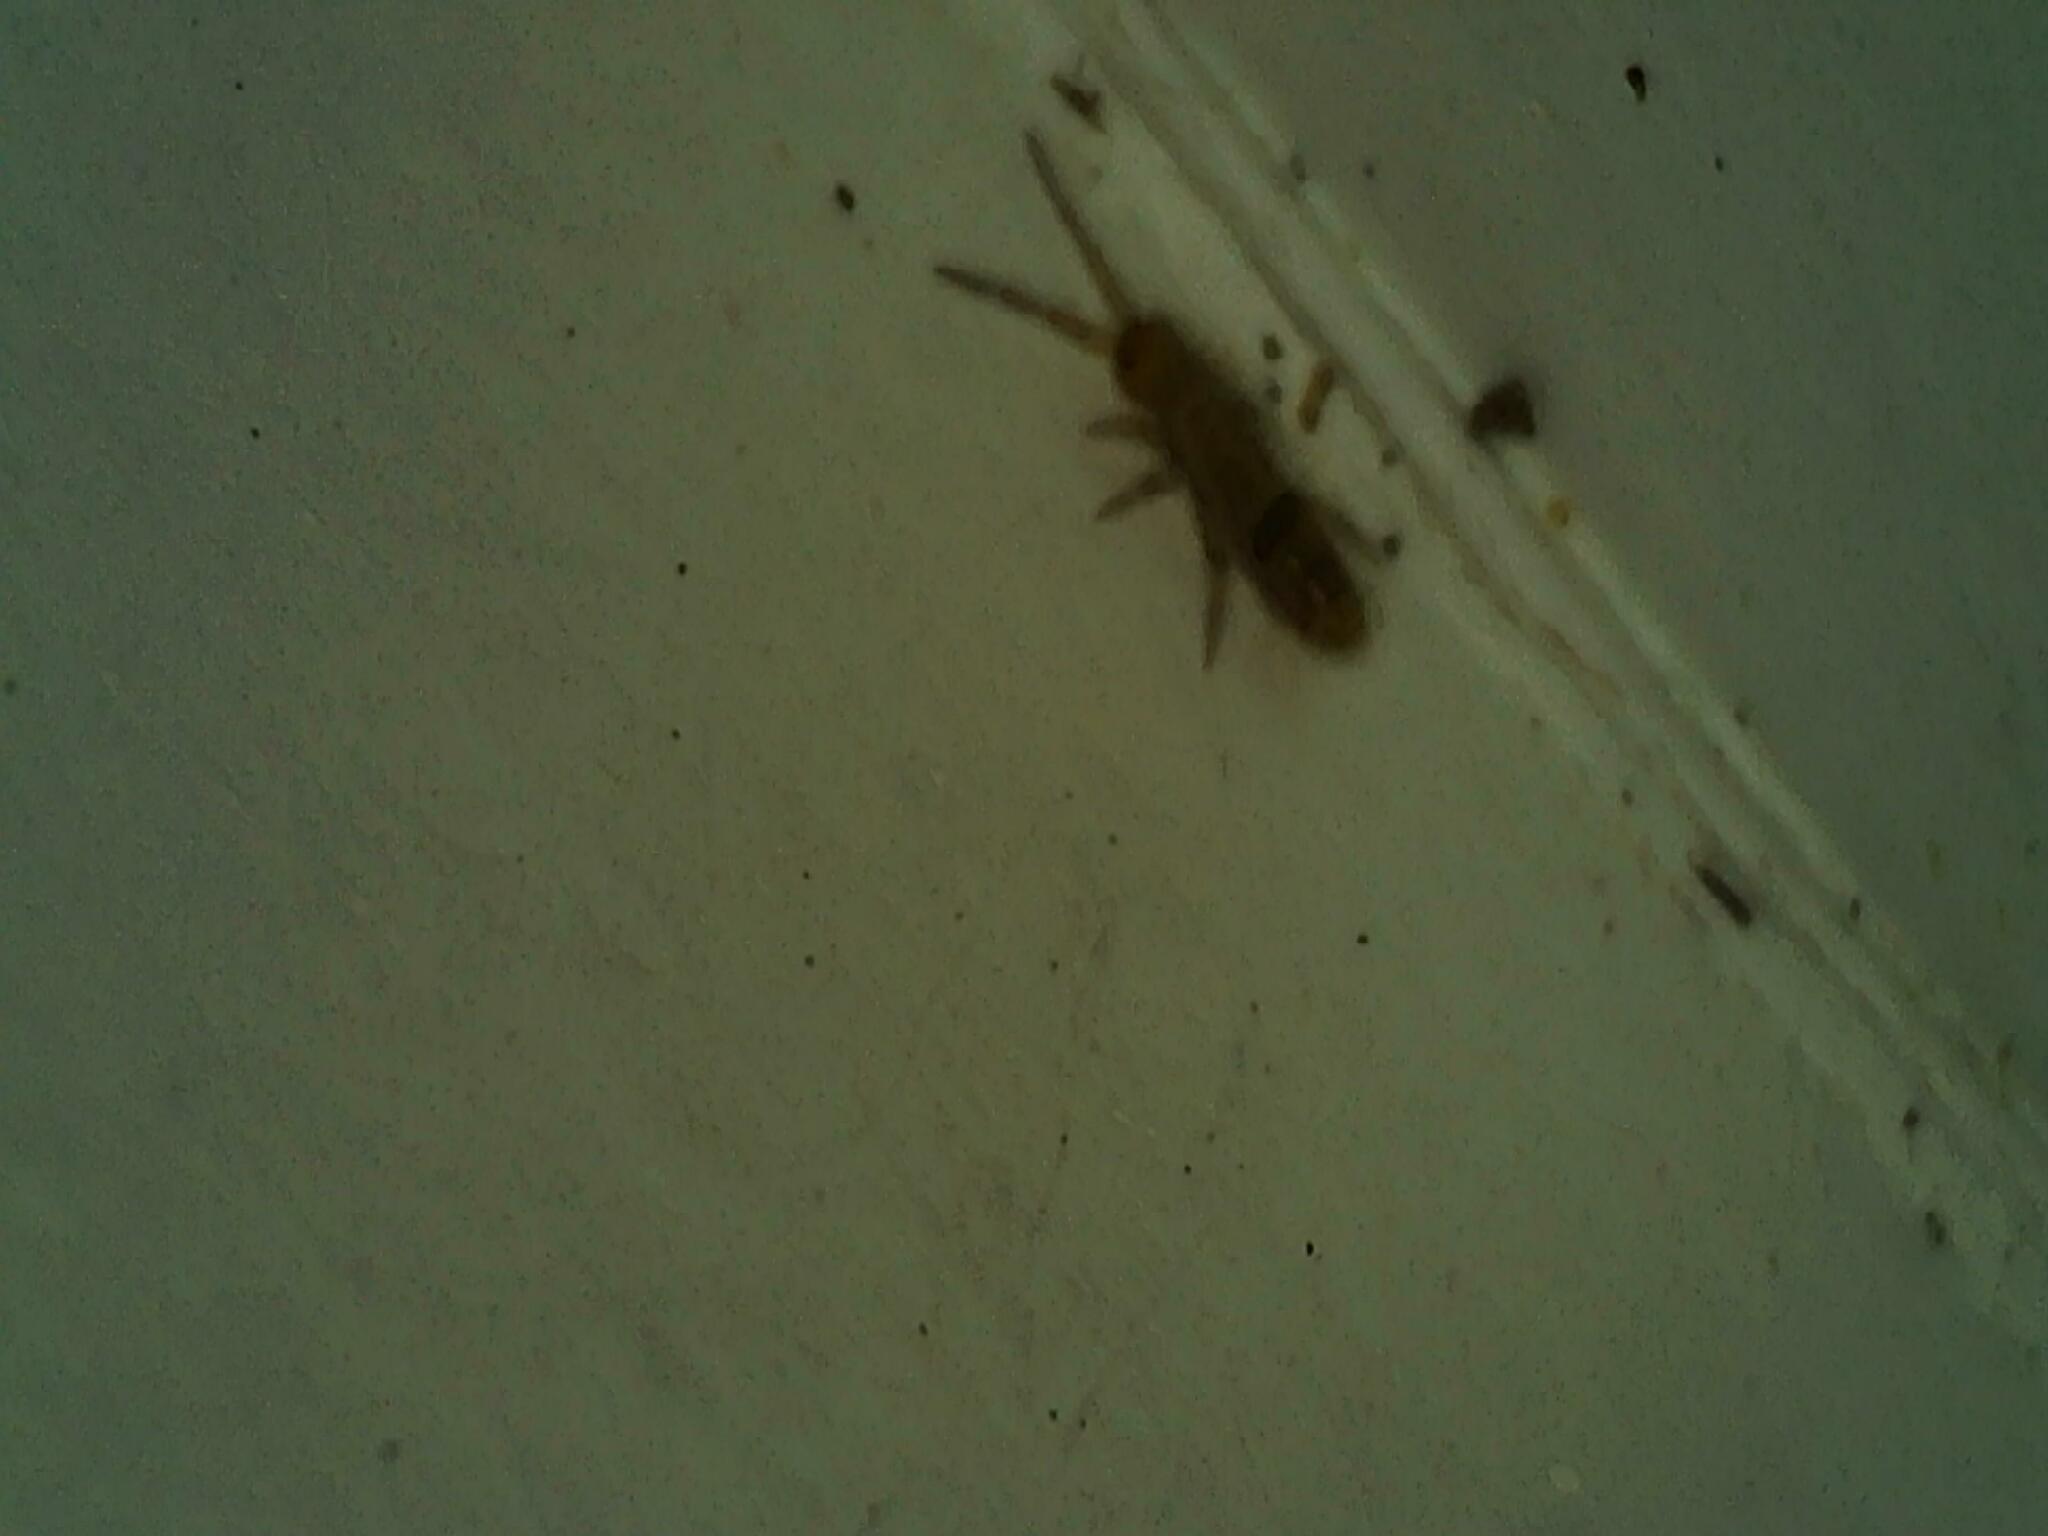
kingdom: Animalia
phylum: Arthropoda
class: Collembola
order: Entomobryomorpha
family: Entomobryidae
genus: Entomobrya
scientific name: Entomobrya triangularis
